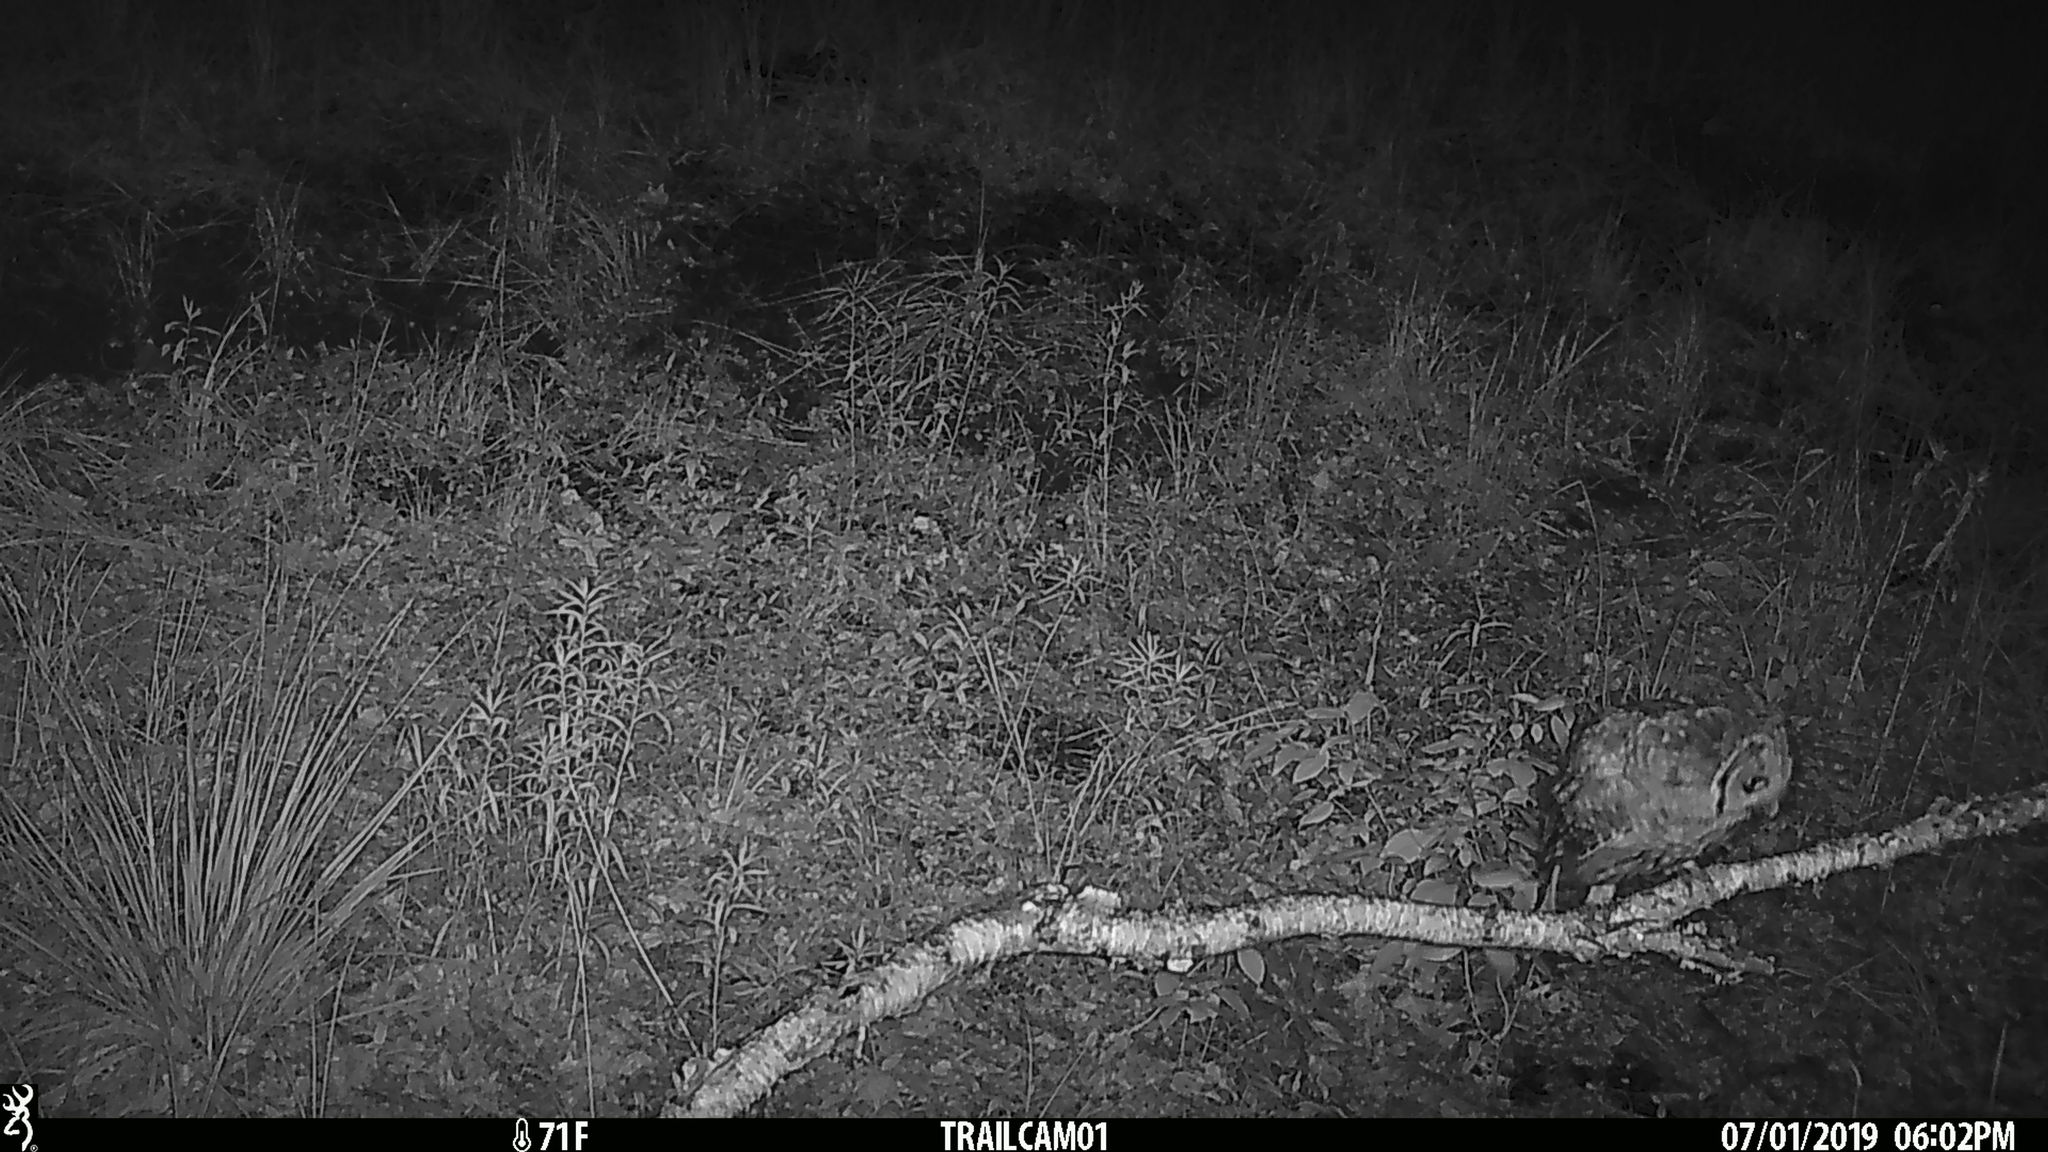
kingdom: Animalia
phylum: Chordata
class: Aves
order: Strigiformes
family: Strigidae
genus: Strix
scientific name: Strix varia
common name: Barred owl
